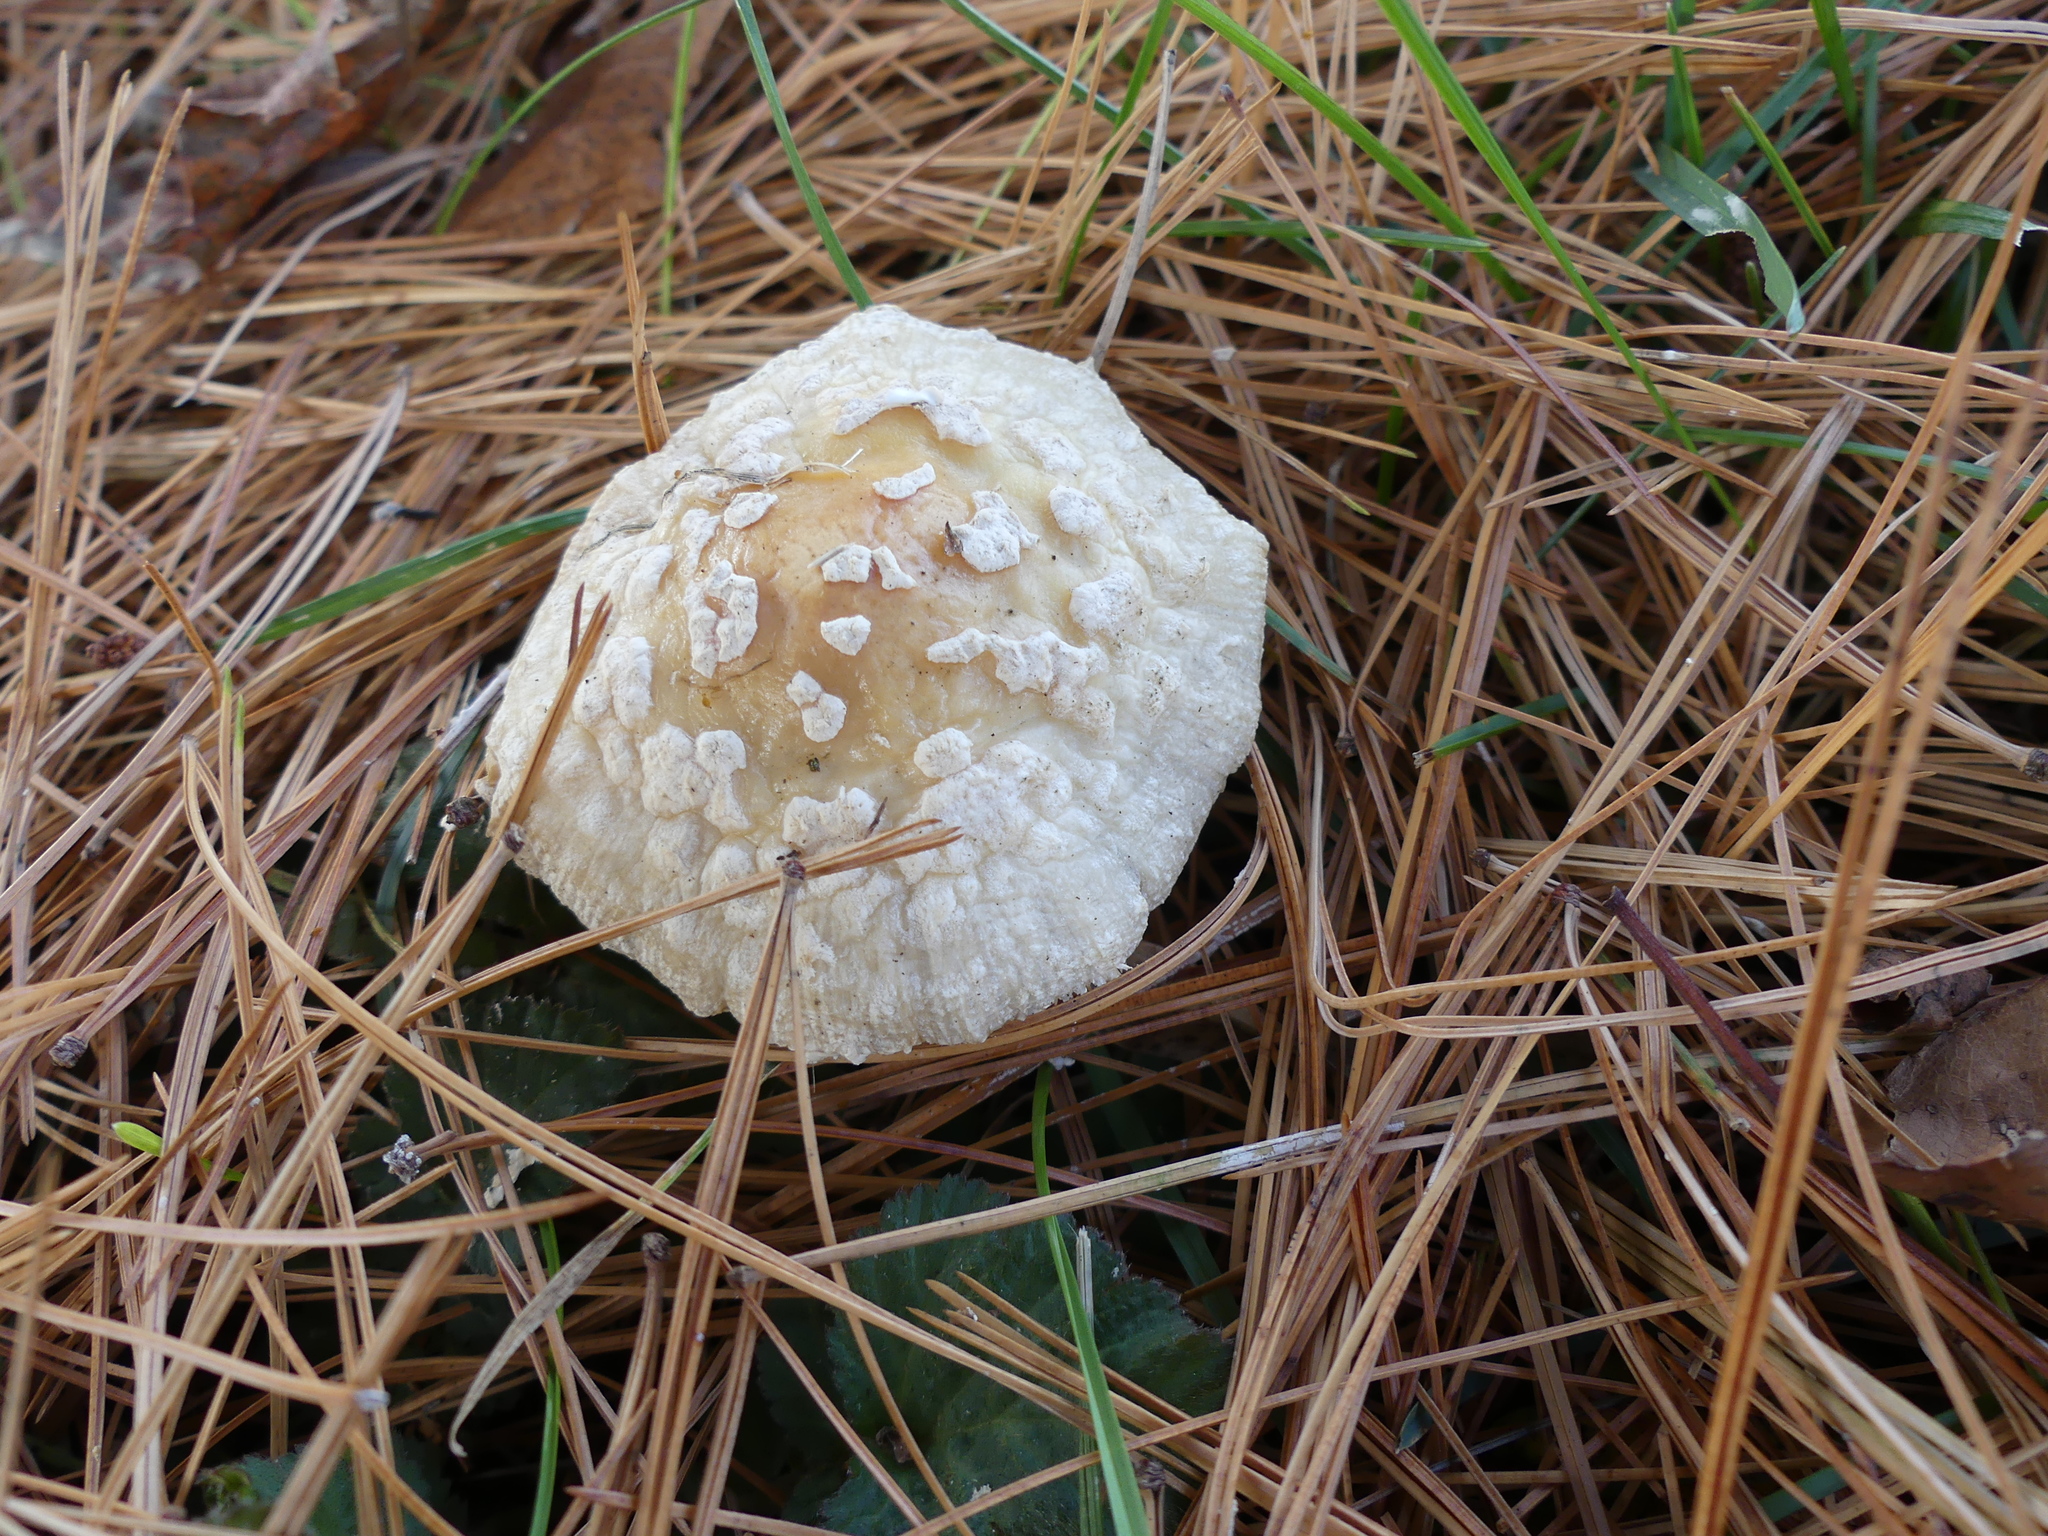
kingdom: Fungi
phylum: Basidiomycota
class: Agaricomycetes
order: Agaricales
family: Amanitaceae
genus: Amanita
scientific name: Amanita muscaria
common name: Fly agaric
